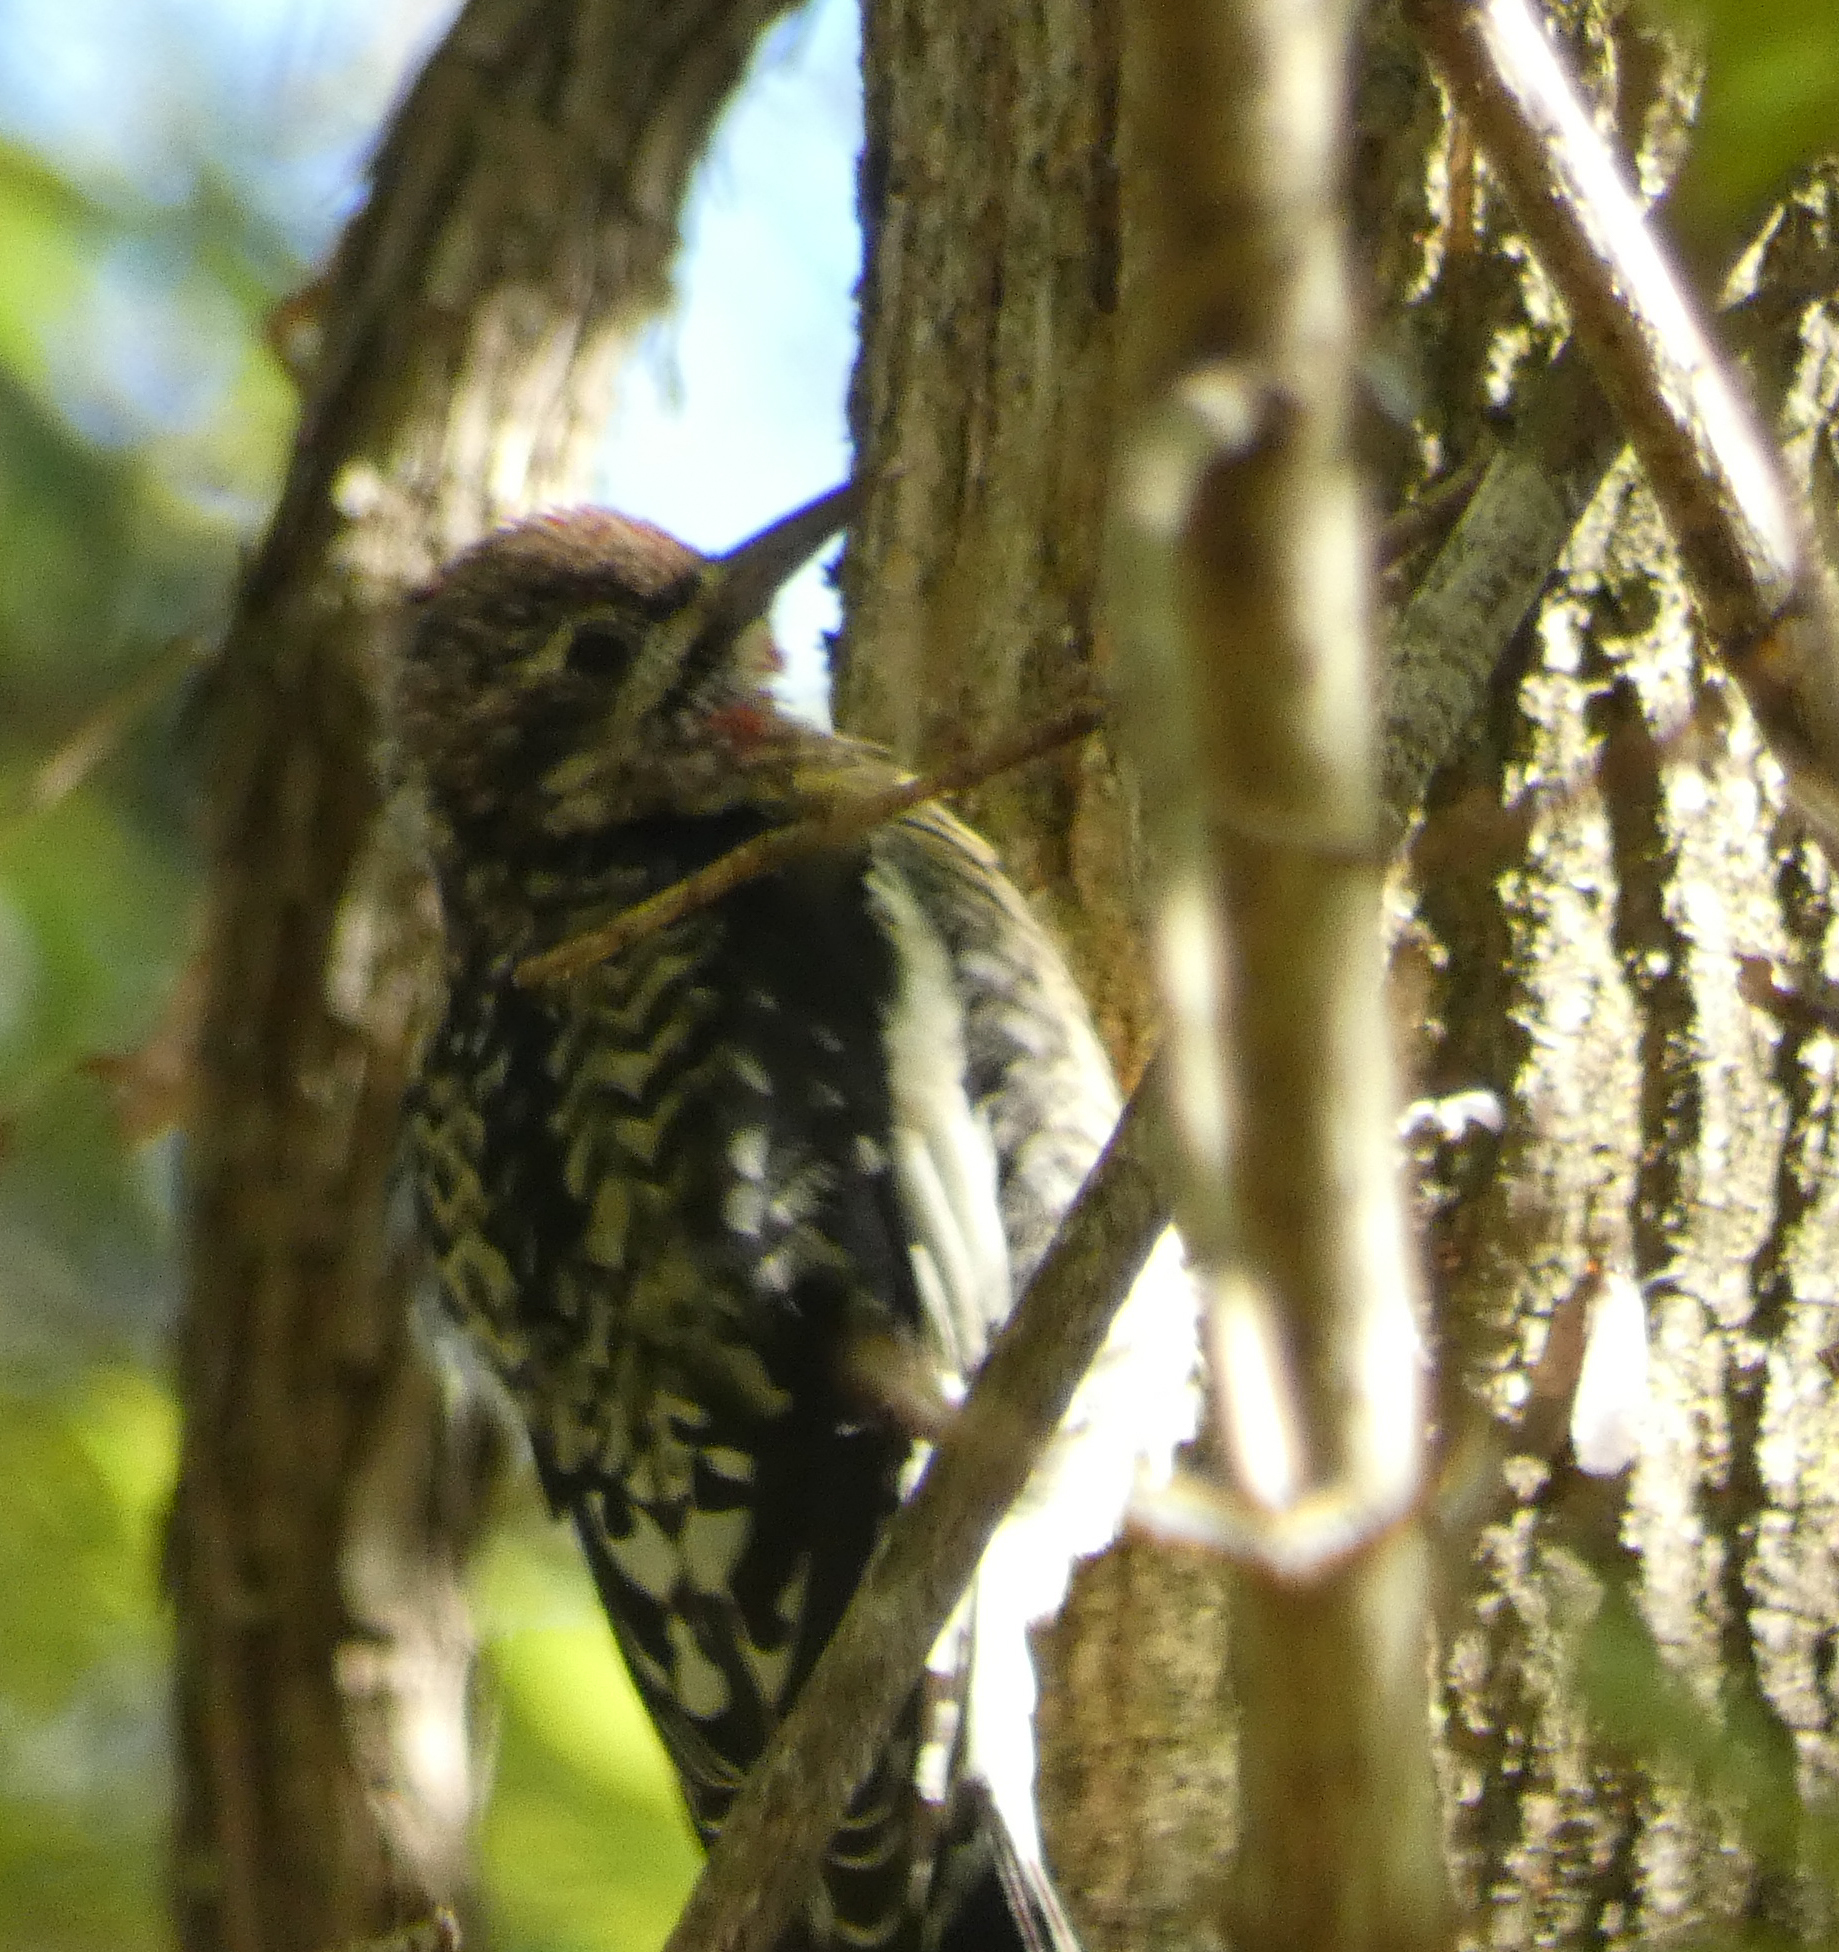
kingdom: Animalia
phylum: Chordata
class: Aves
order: Piciformes
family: Picidae
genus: Sphyrapicus
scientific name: Sphyrapicus varius
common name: Yellow-bellied sapsucker
